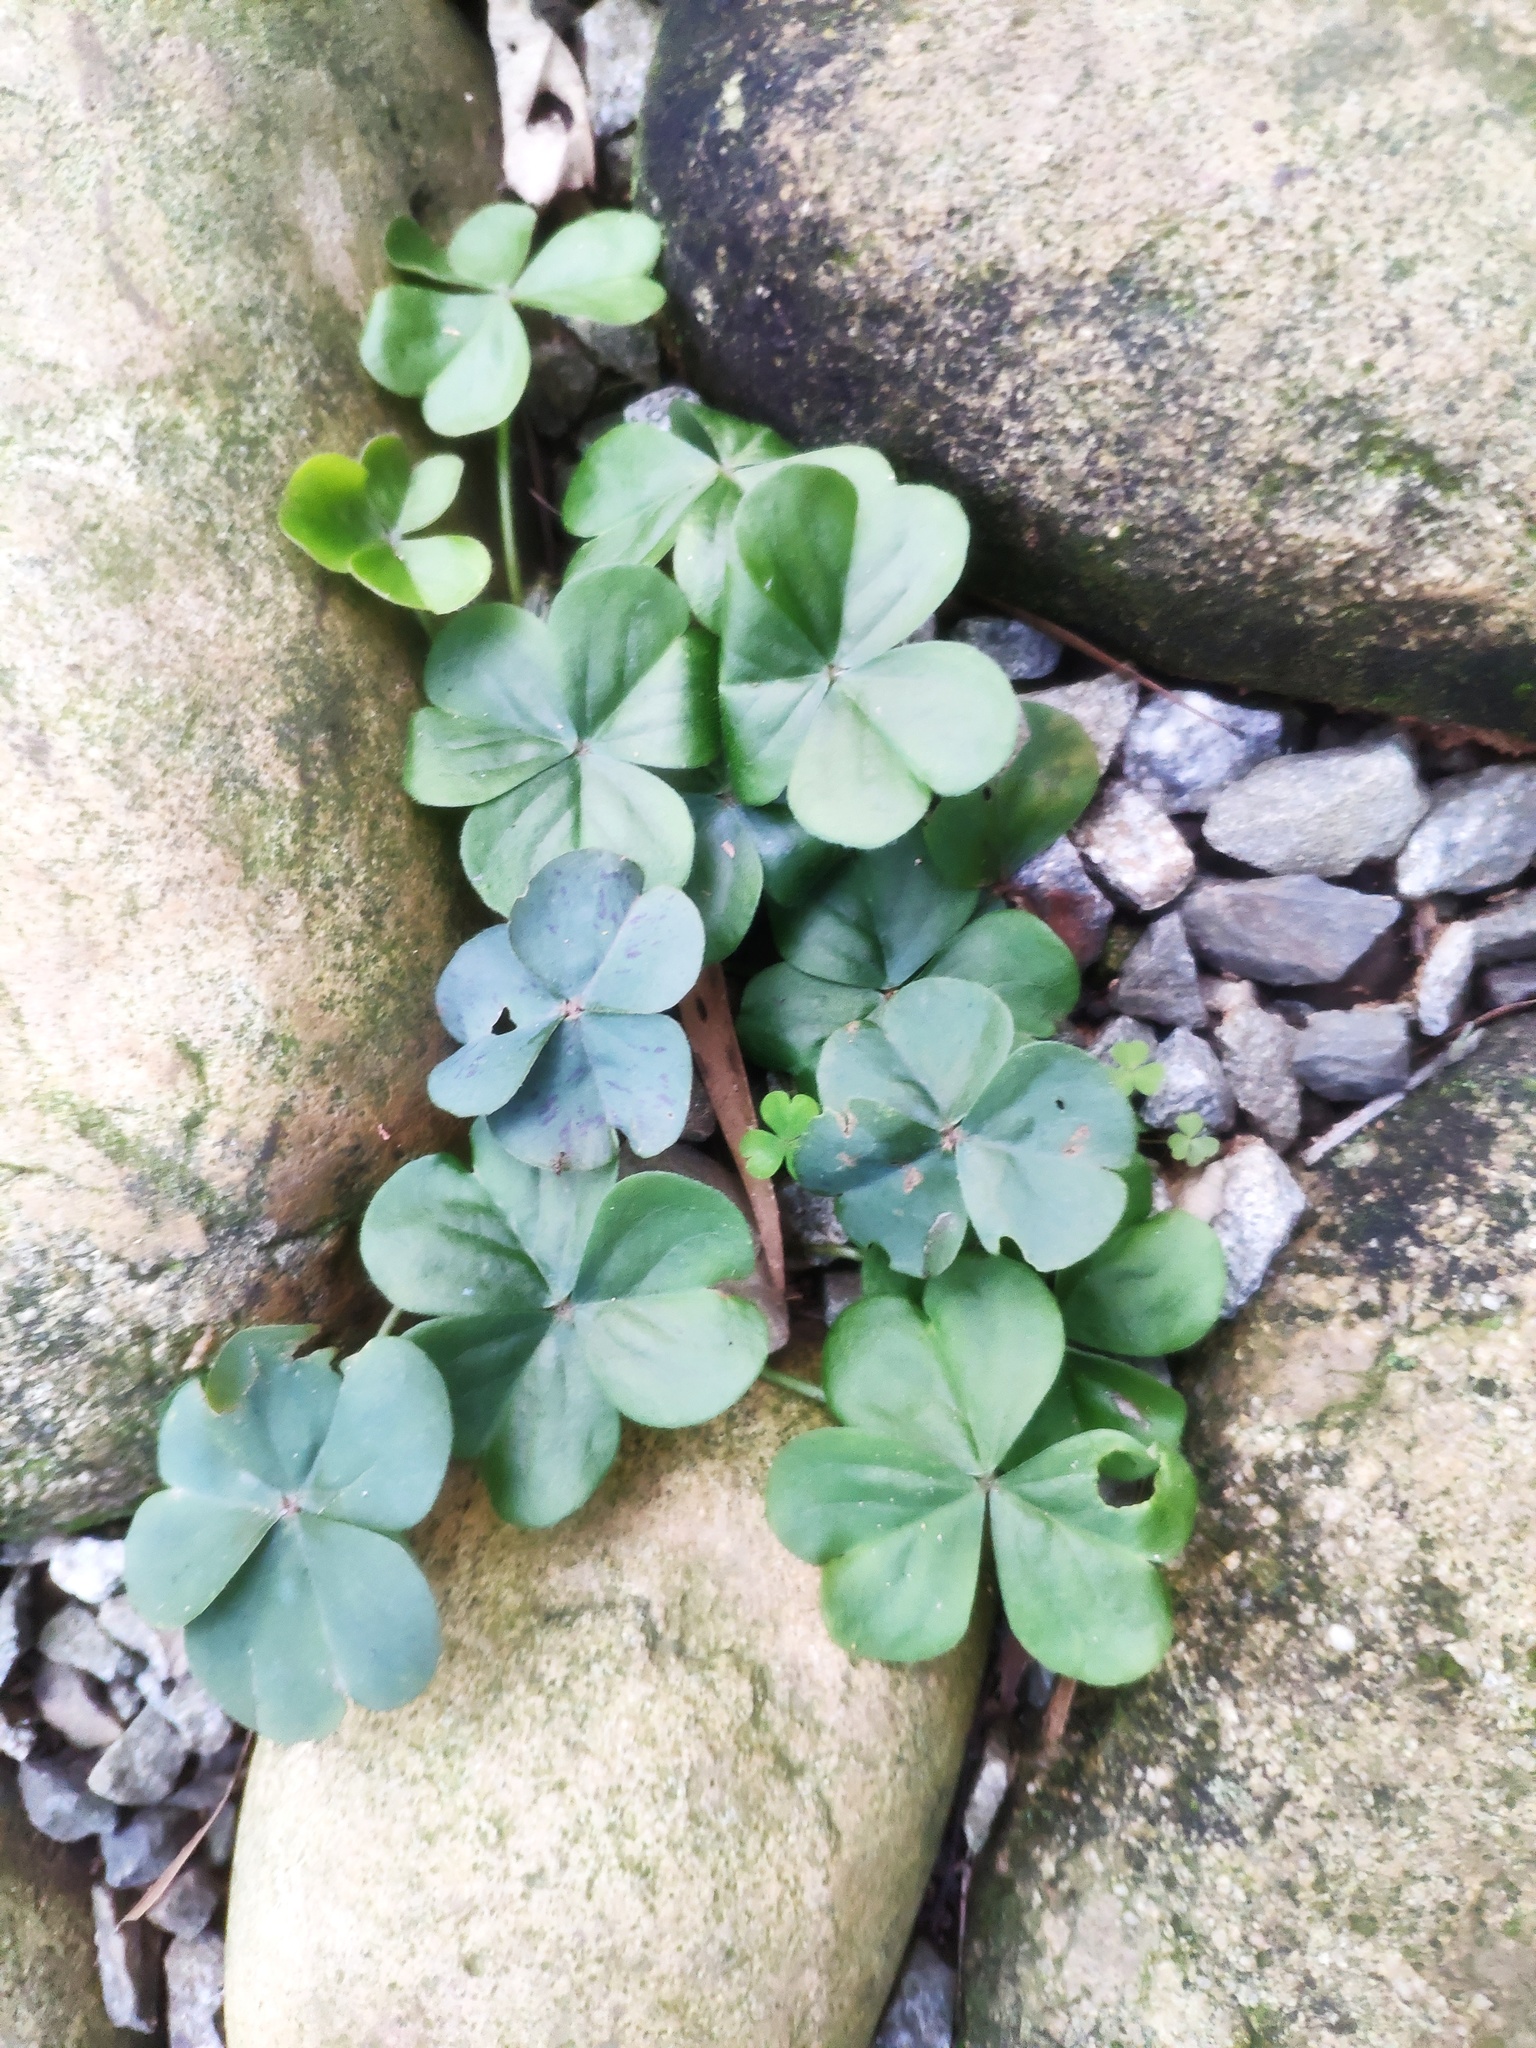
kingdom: Plantae
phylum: Tracheophyta
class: Magnoliopsida
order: Oxalidales
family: Oxalidaceae
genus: Oxalis
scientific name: Oxalis debilis
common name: Large-flowered pink-sorrel
